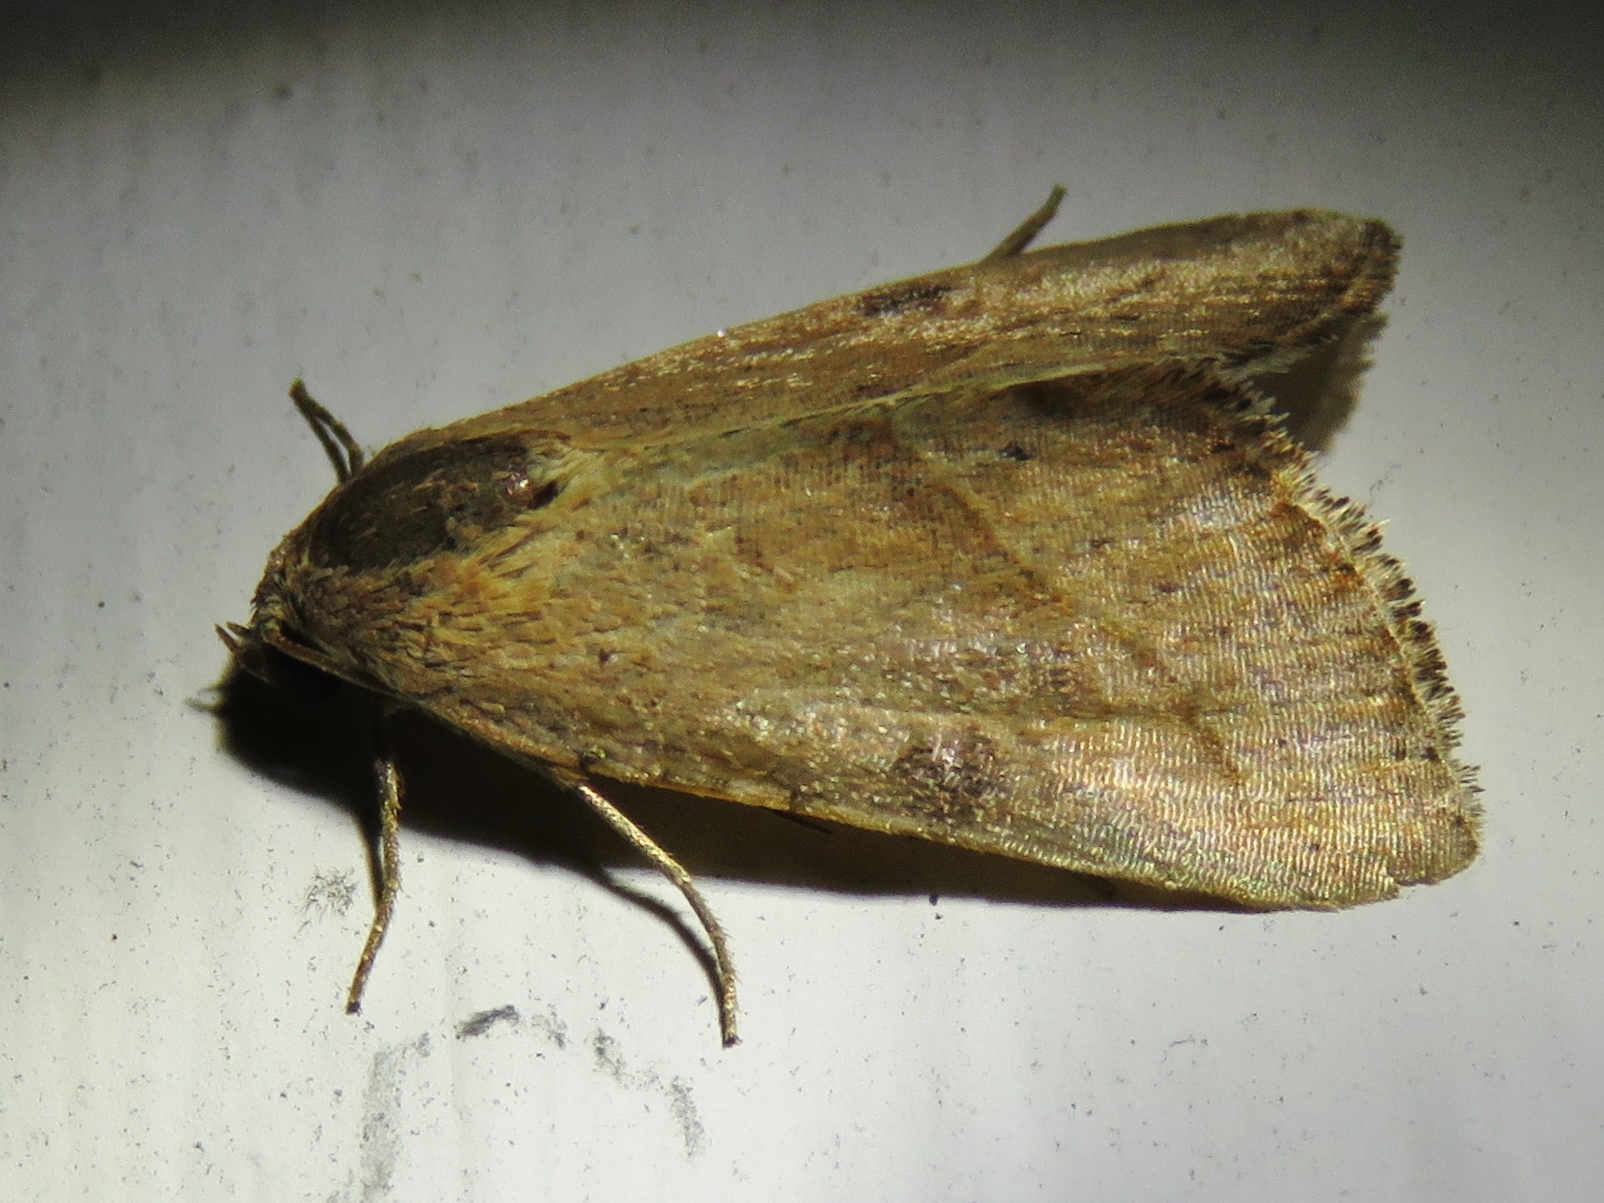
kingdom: Animalia
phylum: Arthropoda
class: Insecta
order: Lepidoptera
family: Noctuidae
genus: Galgula
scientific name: Galgula partita
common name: Wedgeling
